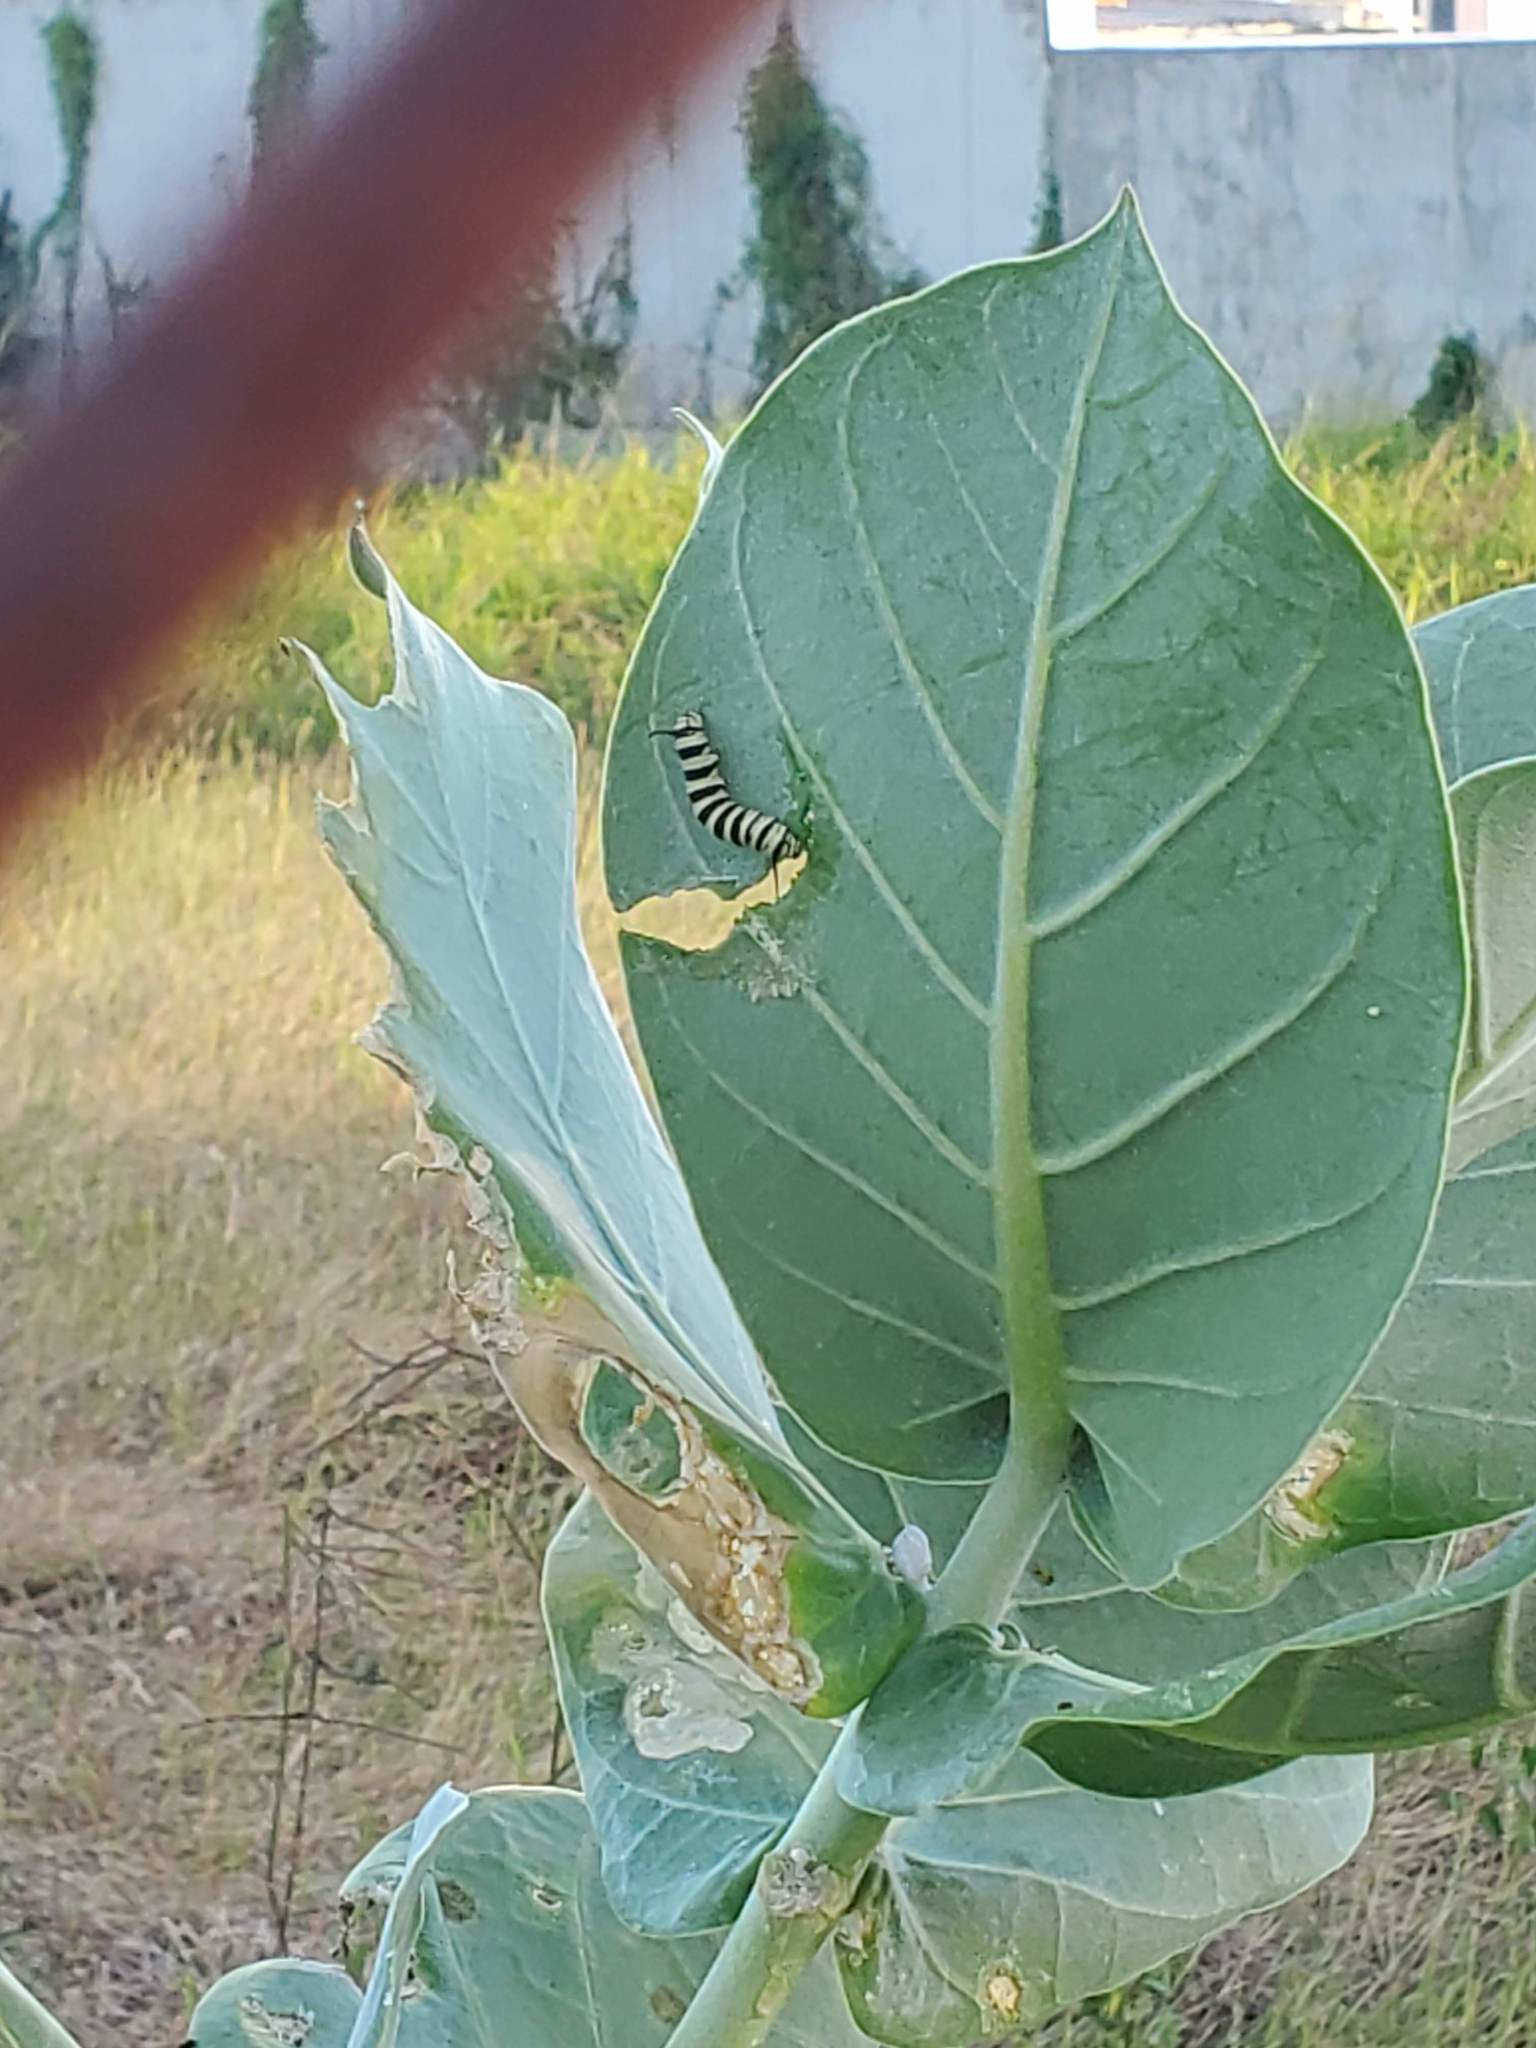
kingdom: Plantae
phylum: Tracheophyta
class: Magnoliopsida
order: Gentianales
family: Apocynaceae
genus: Calotropis
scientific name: Calotropis procera
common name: Roostertree
